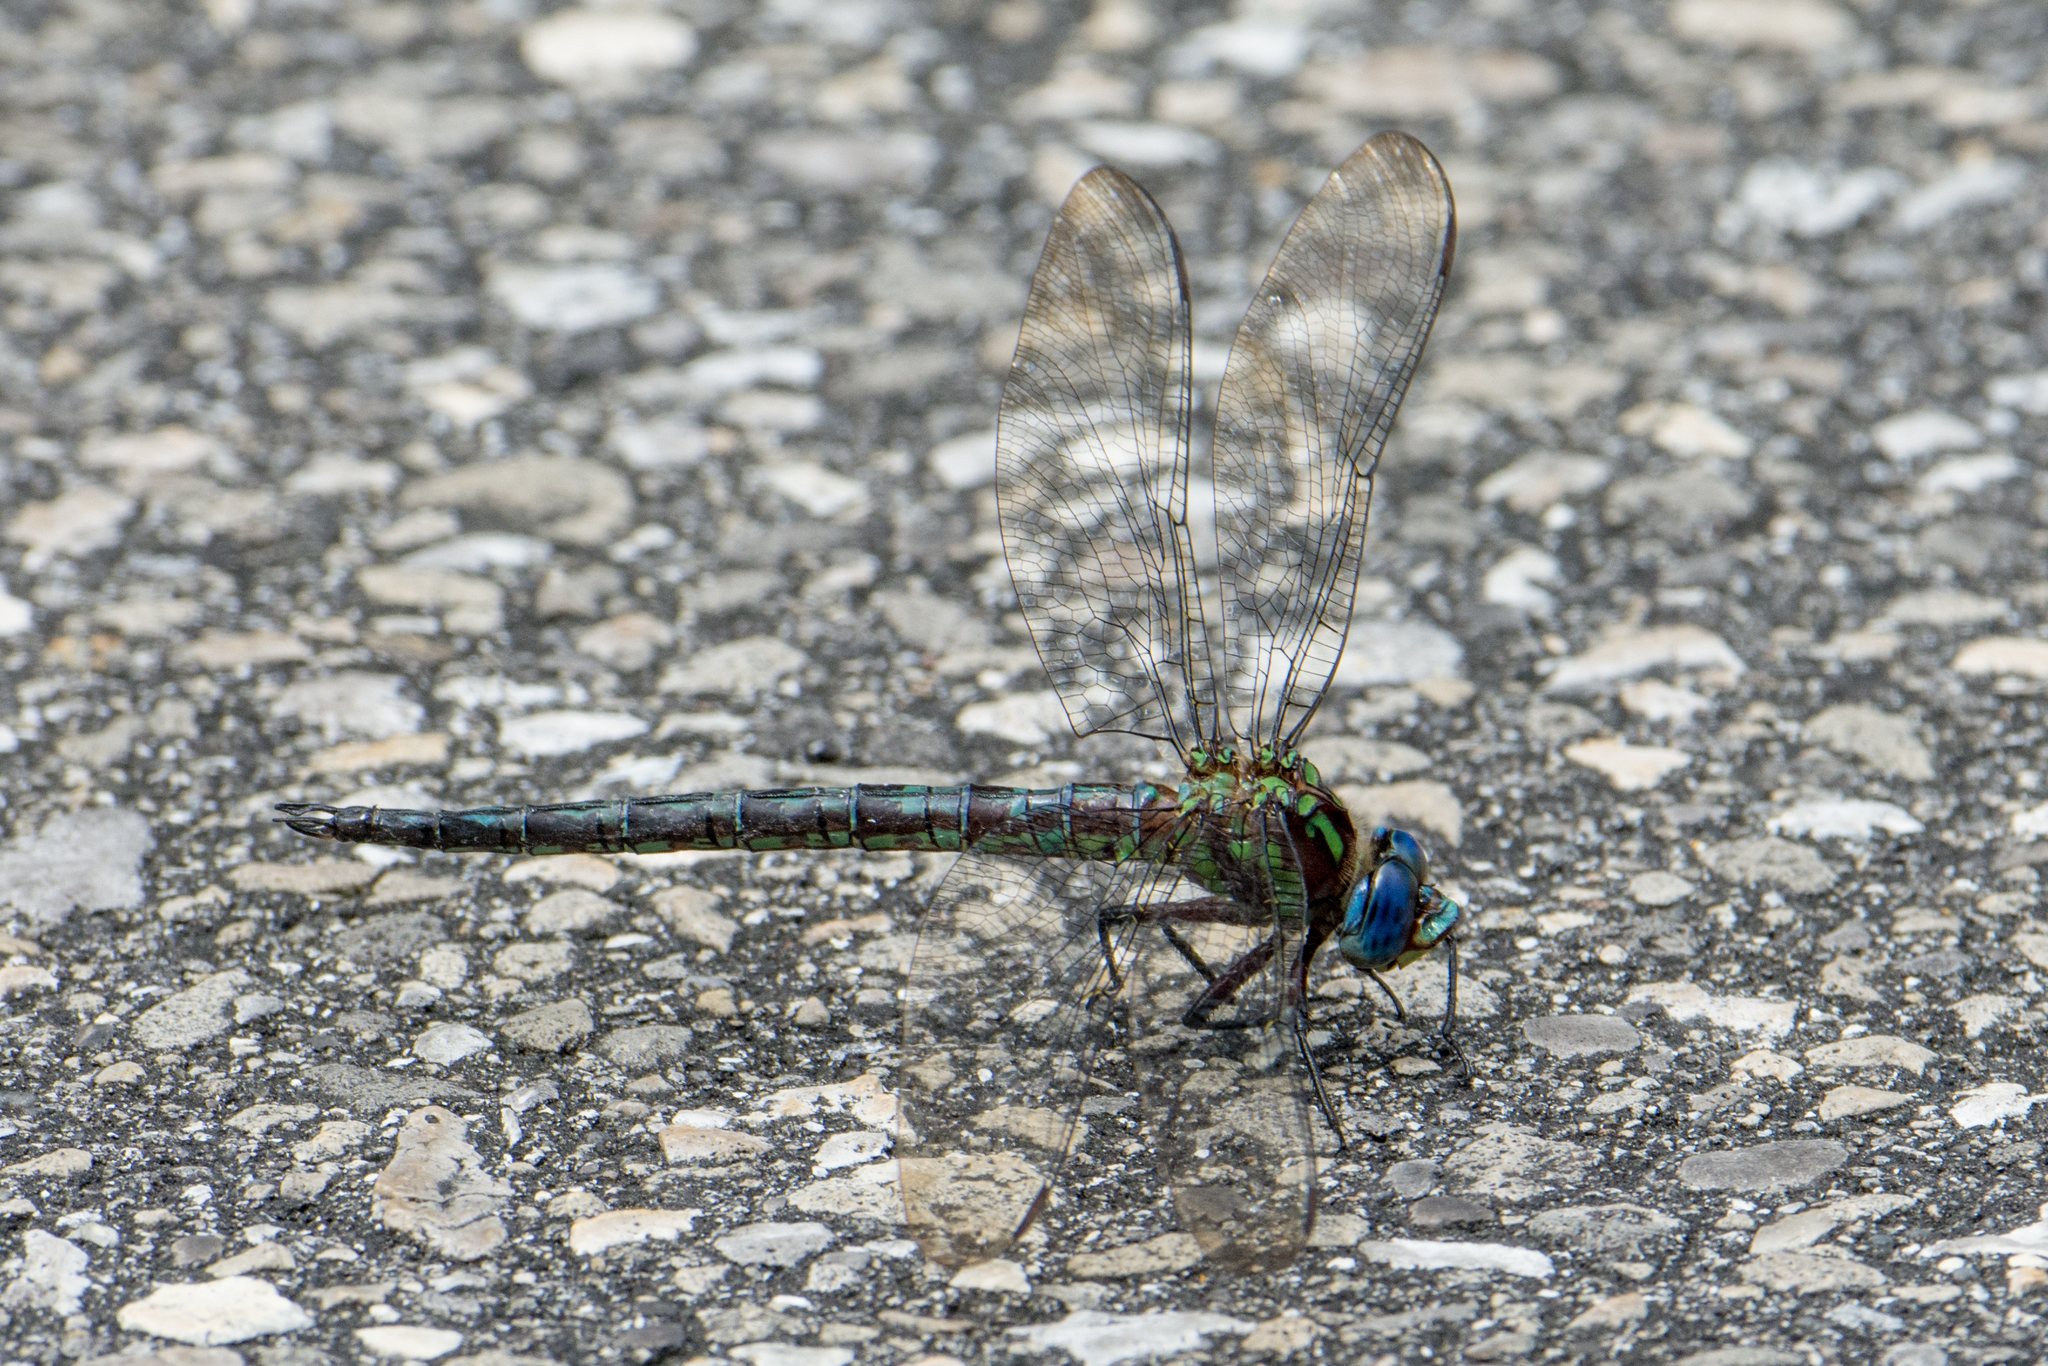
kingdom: Animalia
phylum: Arthropoda
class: Insecta
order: Odonata
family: Aeshnidae
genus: Nasiaeschna
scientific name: Nasiaeschna pentacantha
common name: Cyrano darner
